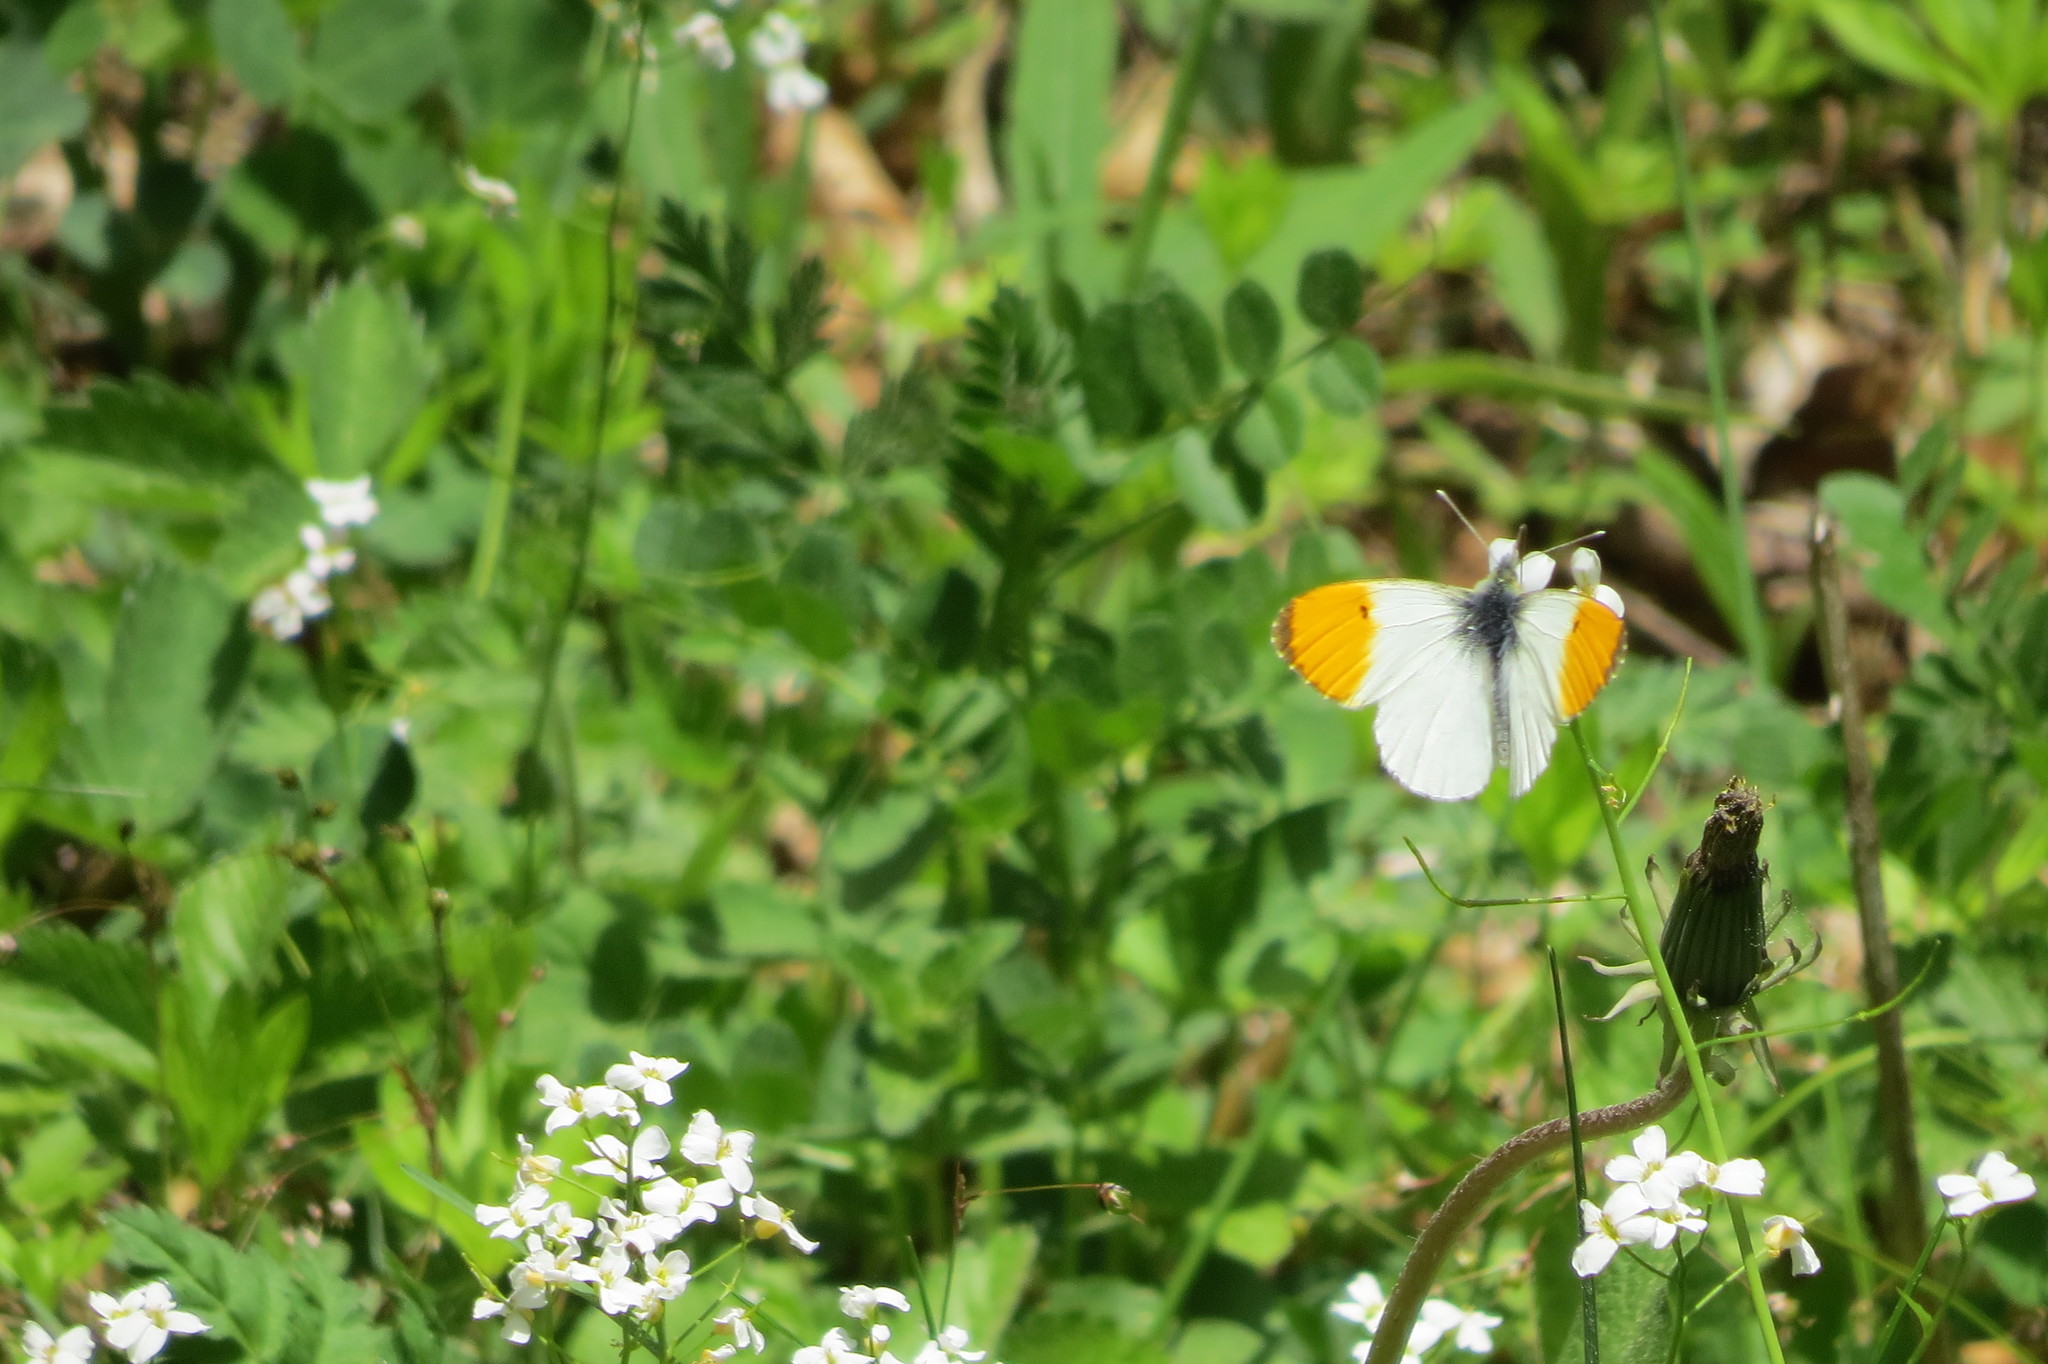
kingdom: Animalia
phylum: Arthropoda
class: Insecta
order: Lepidoptera
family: Pieridae
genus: Anthocharis
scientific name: Anthocharis cardamines
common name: Orange-tip
